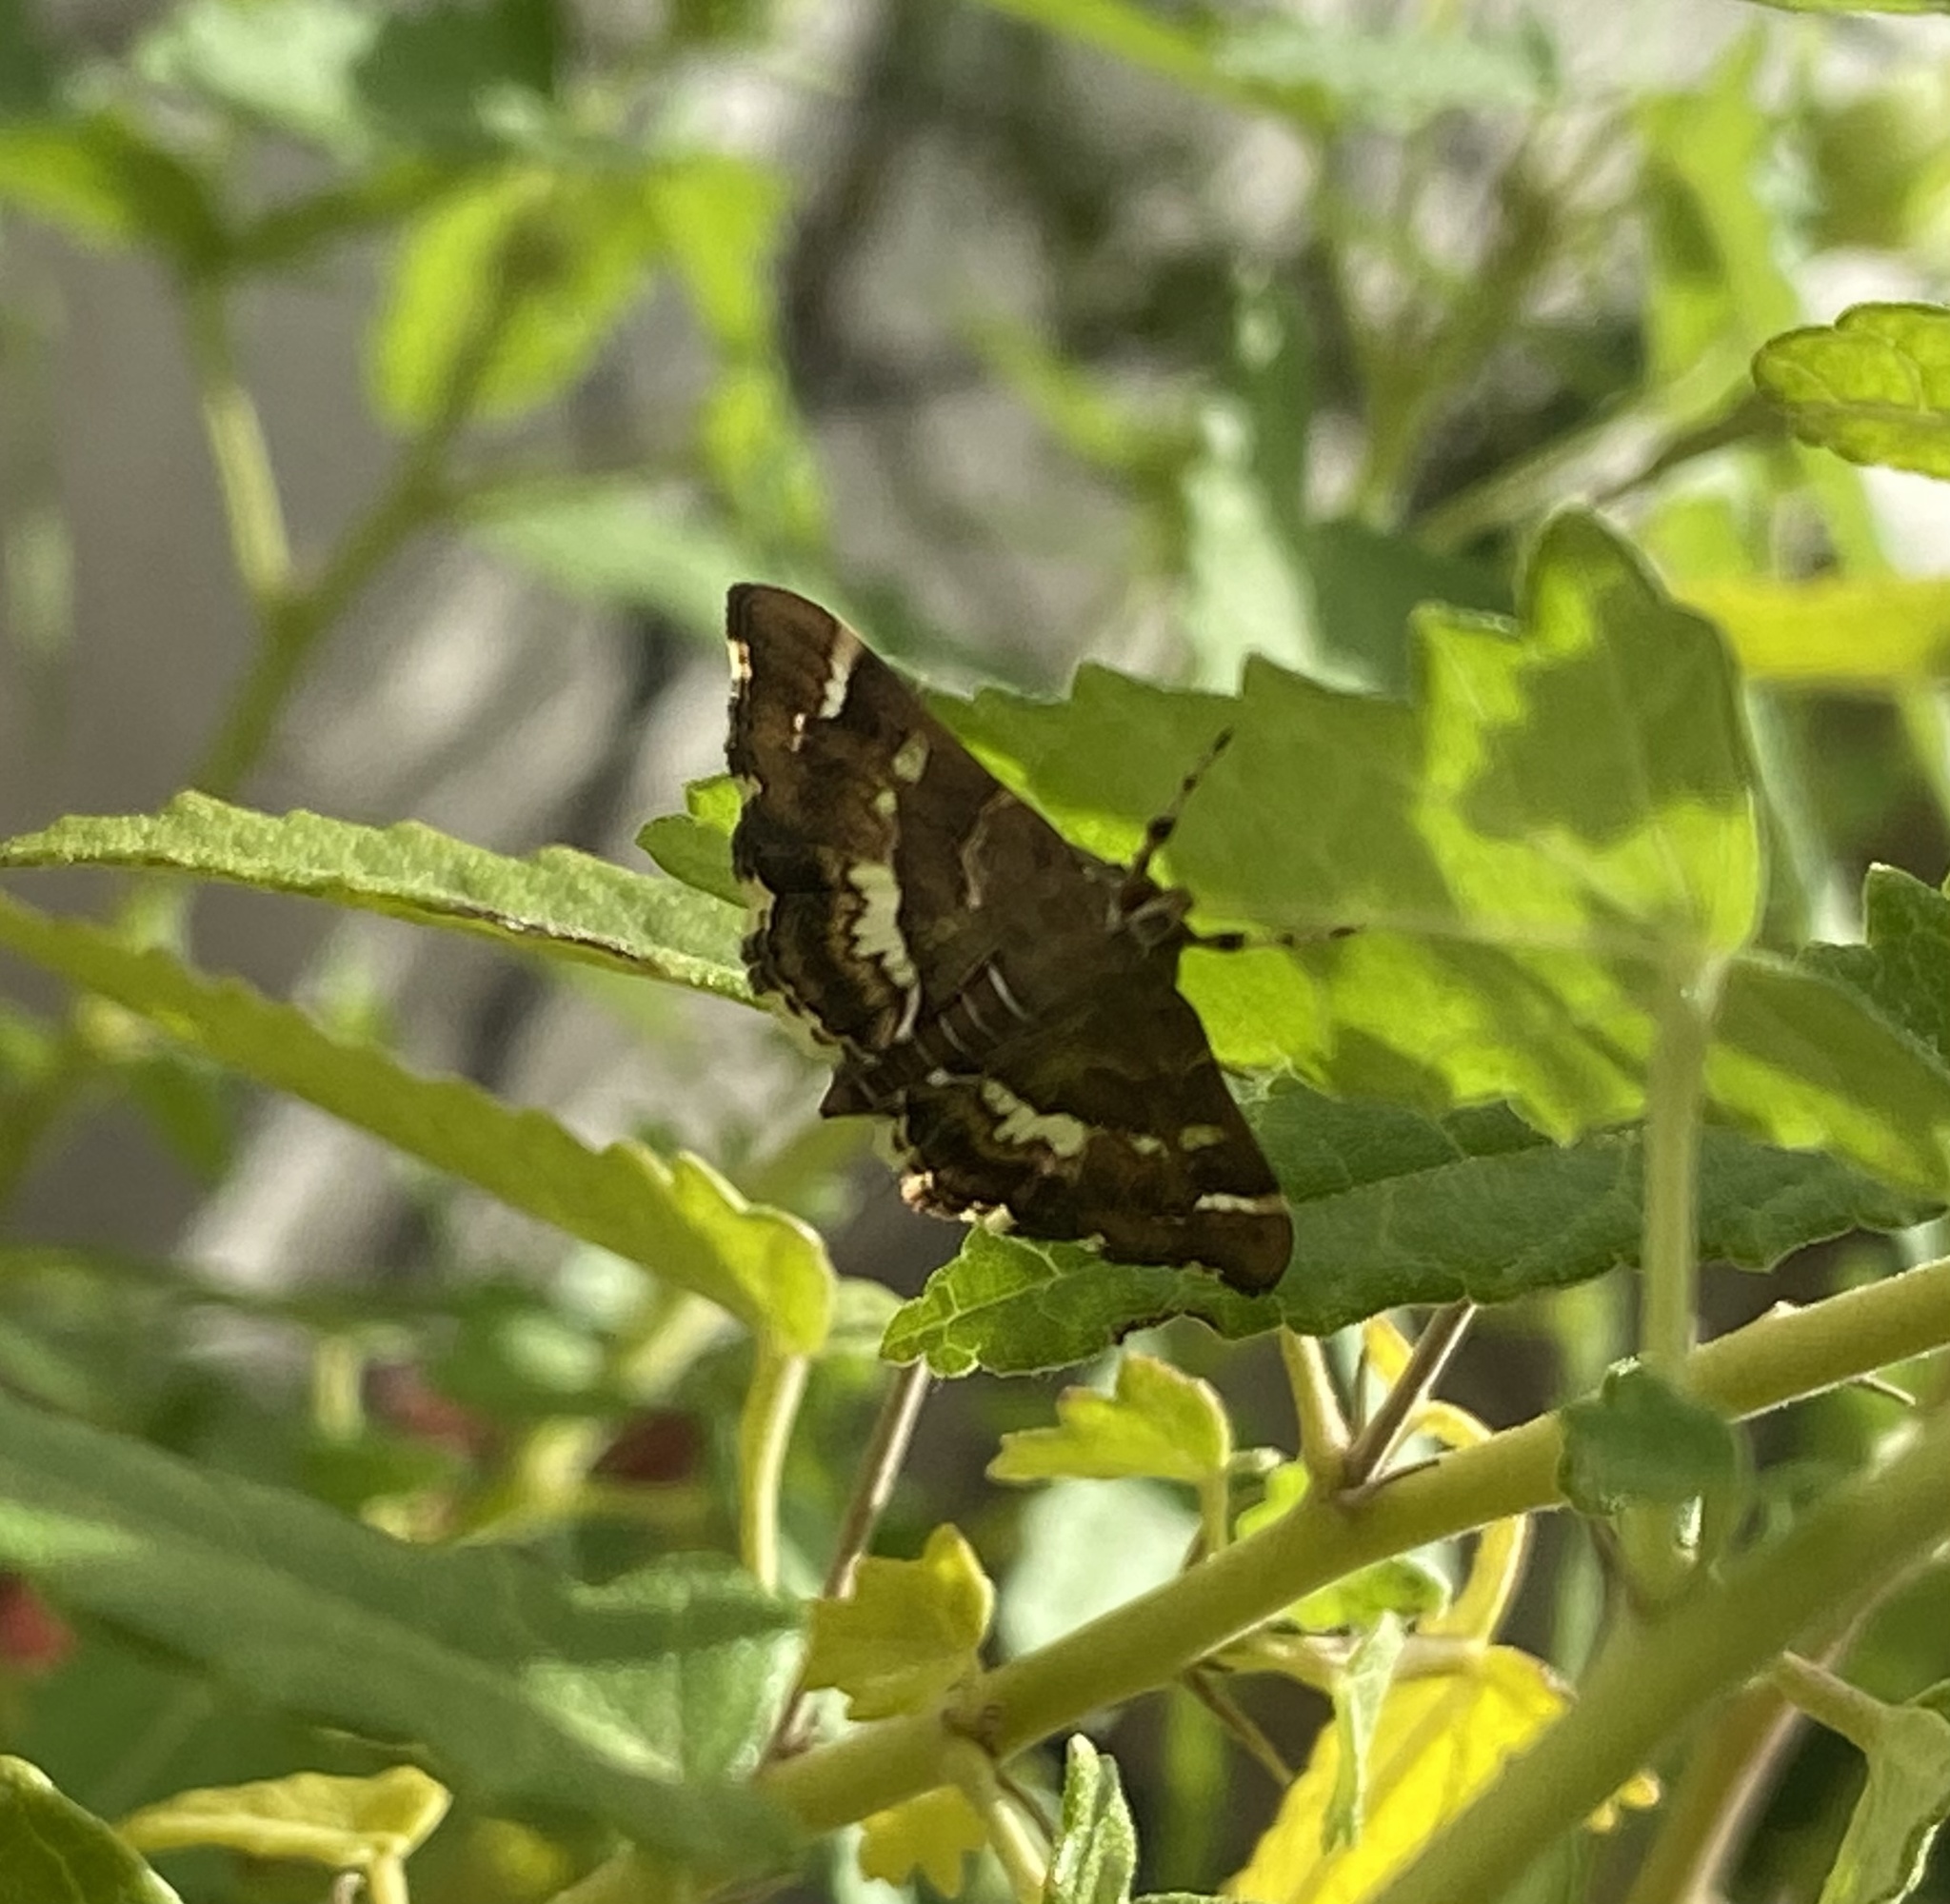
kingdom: Animalia
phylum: Arthropoda
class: Insecta
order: Lepidoptera
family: Crambidae
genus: Hymenia
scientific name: Hymenia perspectalis
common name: Spotted beet webworm
